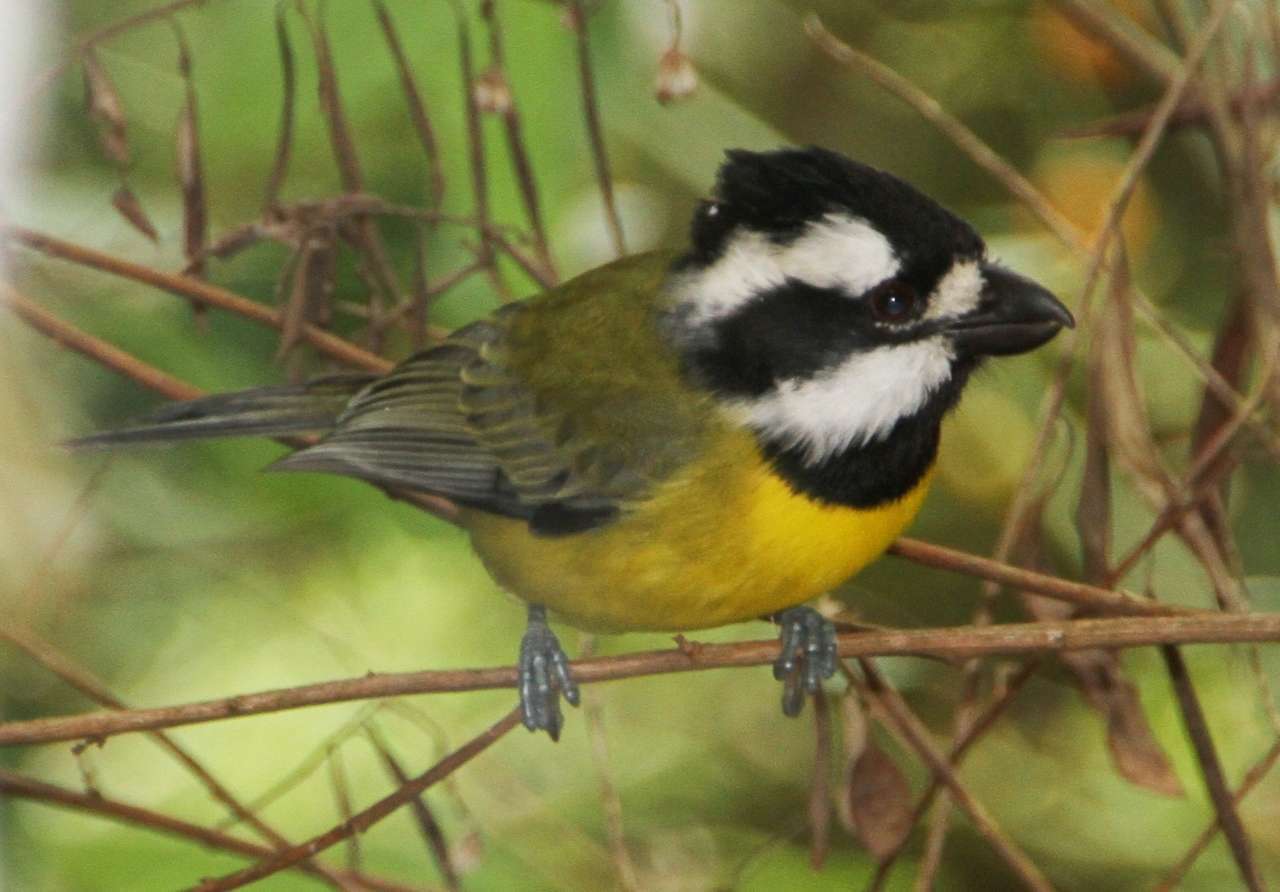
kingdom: Animalia
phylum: Chordata
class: Aves
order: Passeriformes
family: Pachycephalidae
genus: Falcunculus
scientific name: Falcunculus frontatus
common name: Crested shriketit
